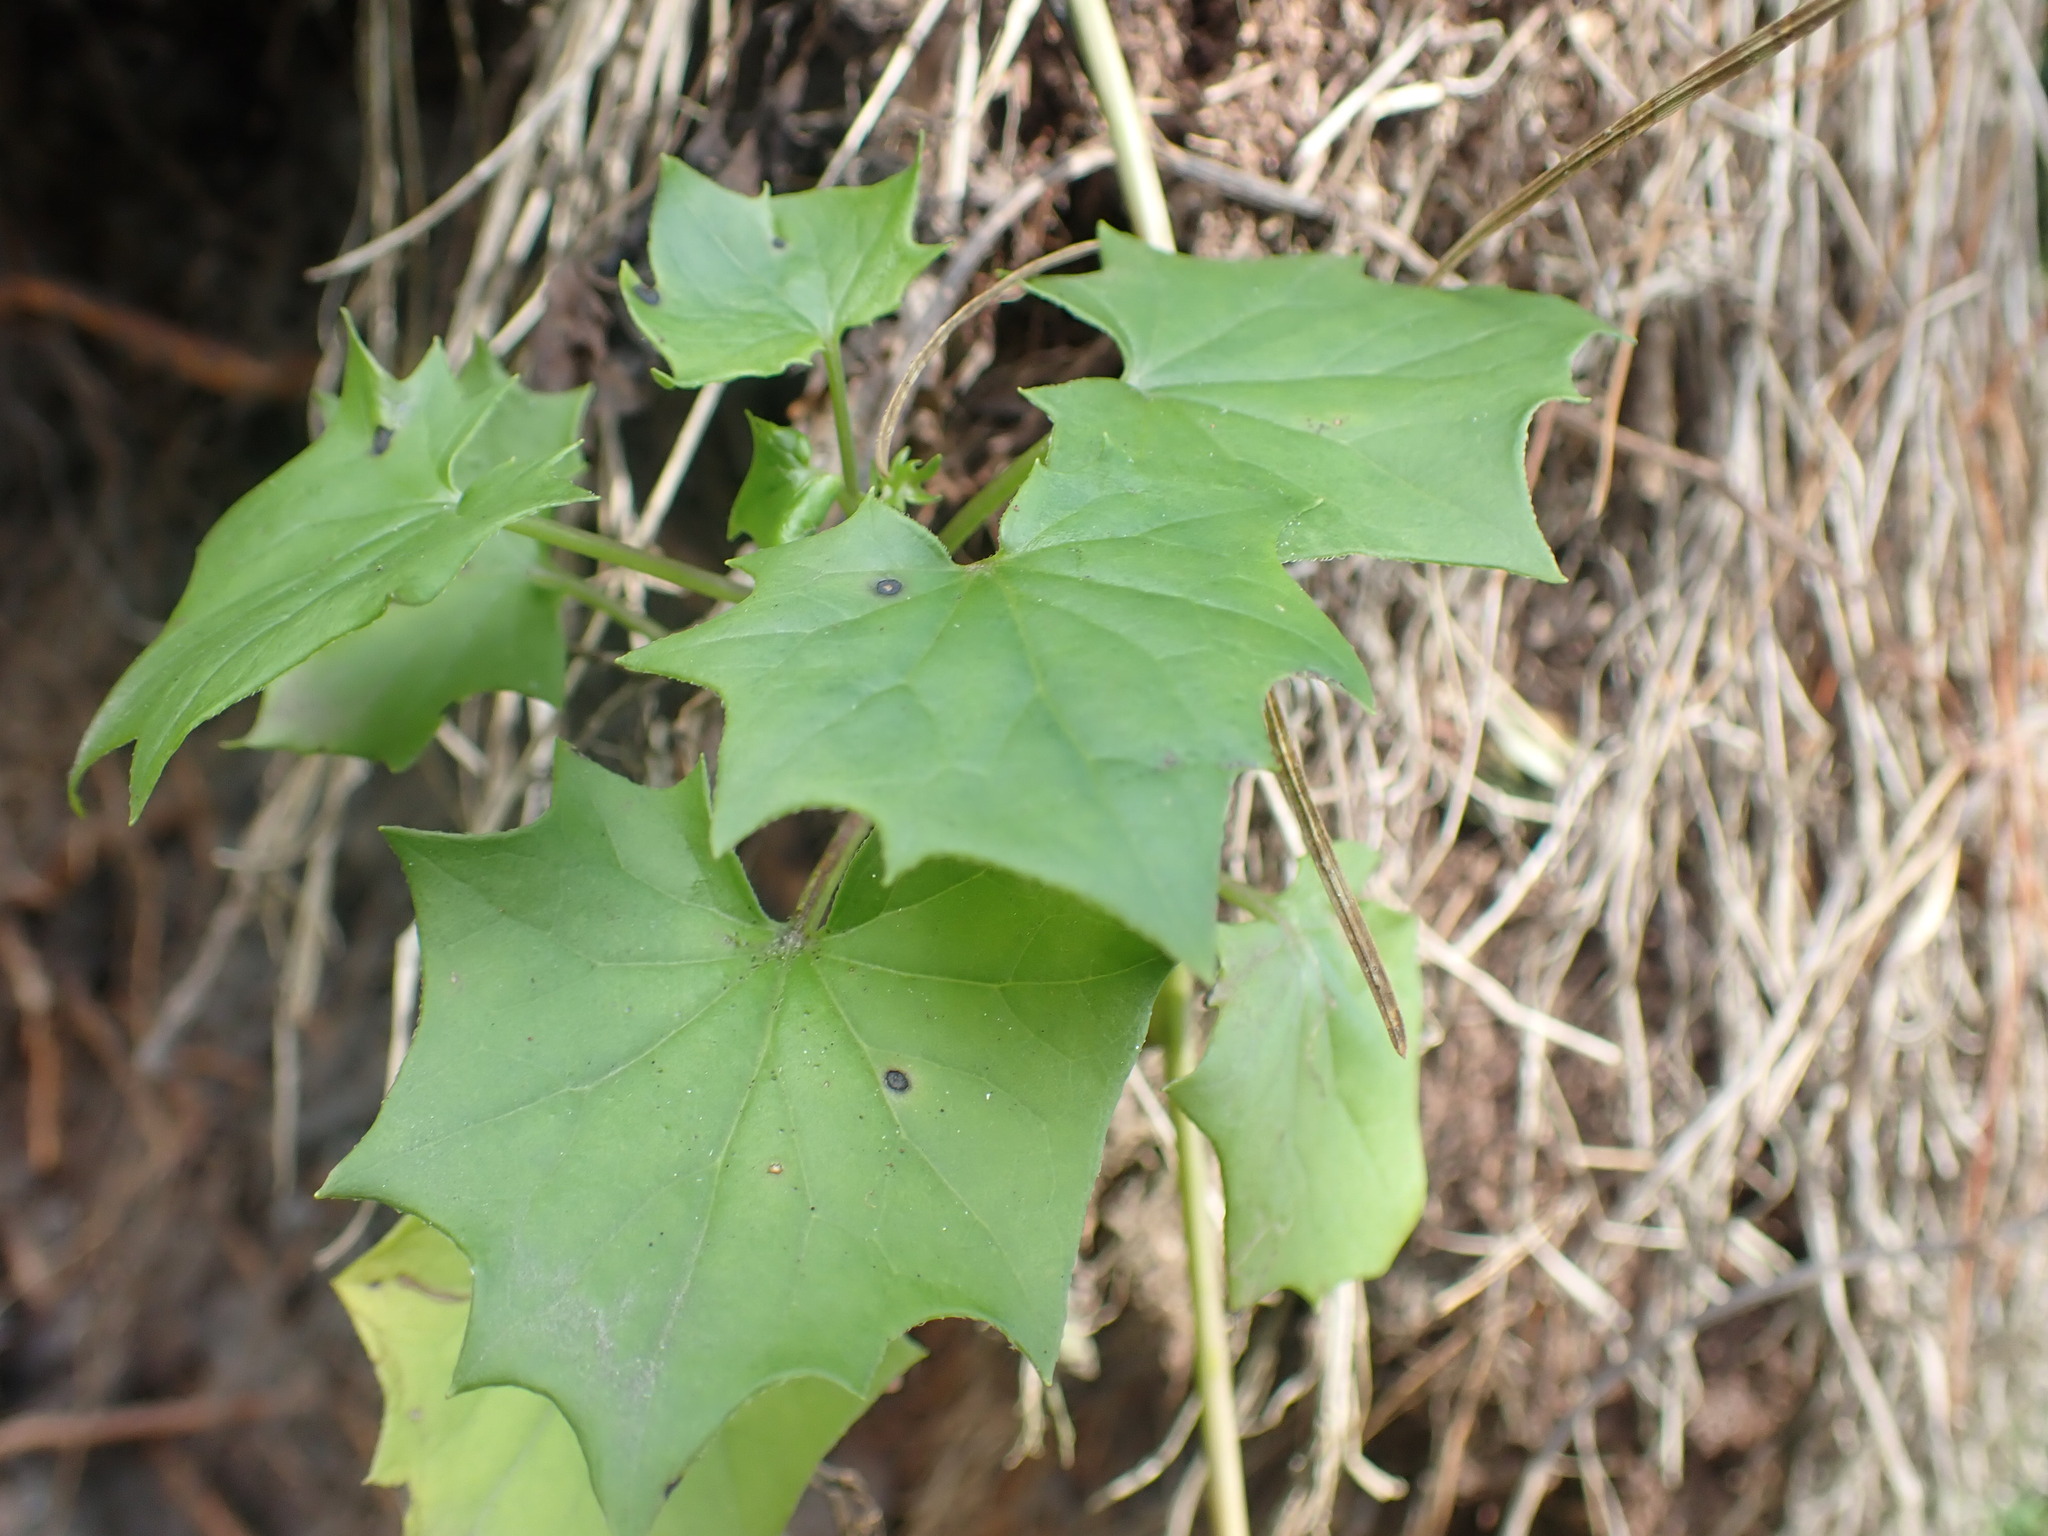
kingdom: Plantae
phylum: Tracheophyta
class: Magnoliopsida
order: Asterales
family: Asteraceae
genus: Delairea
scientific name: Delairea odorata
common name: Cape-ivy
